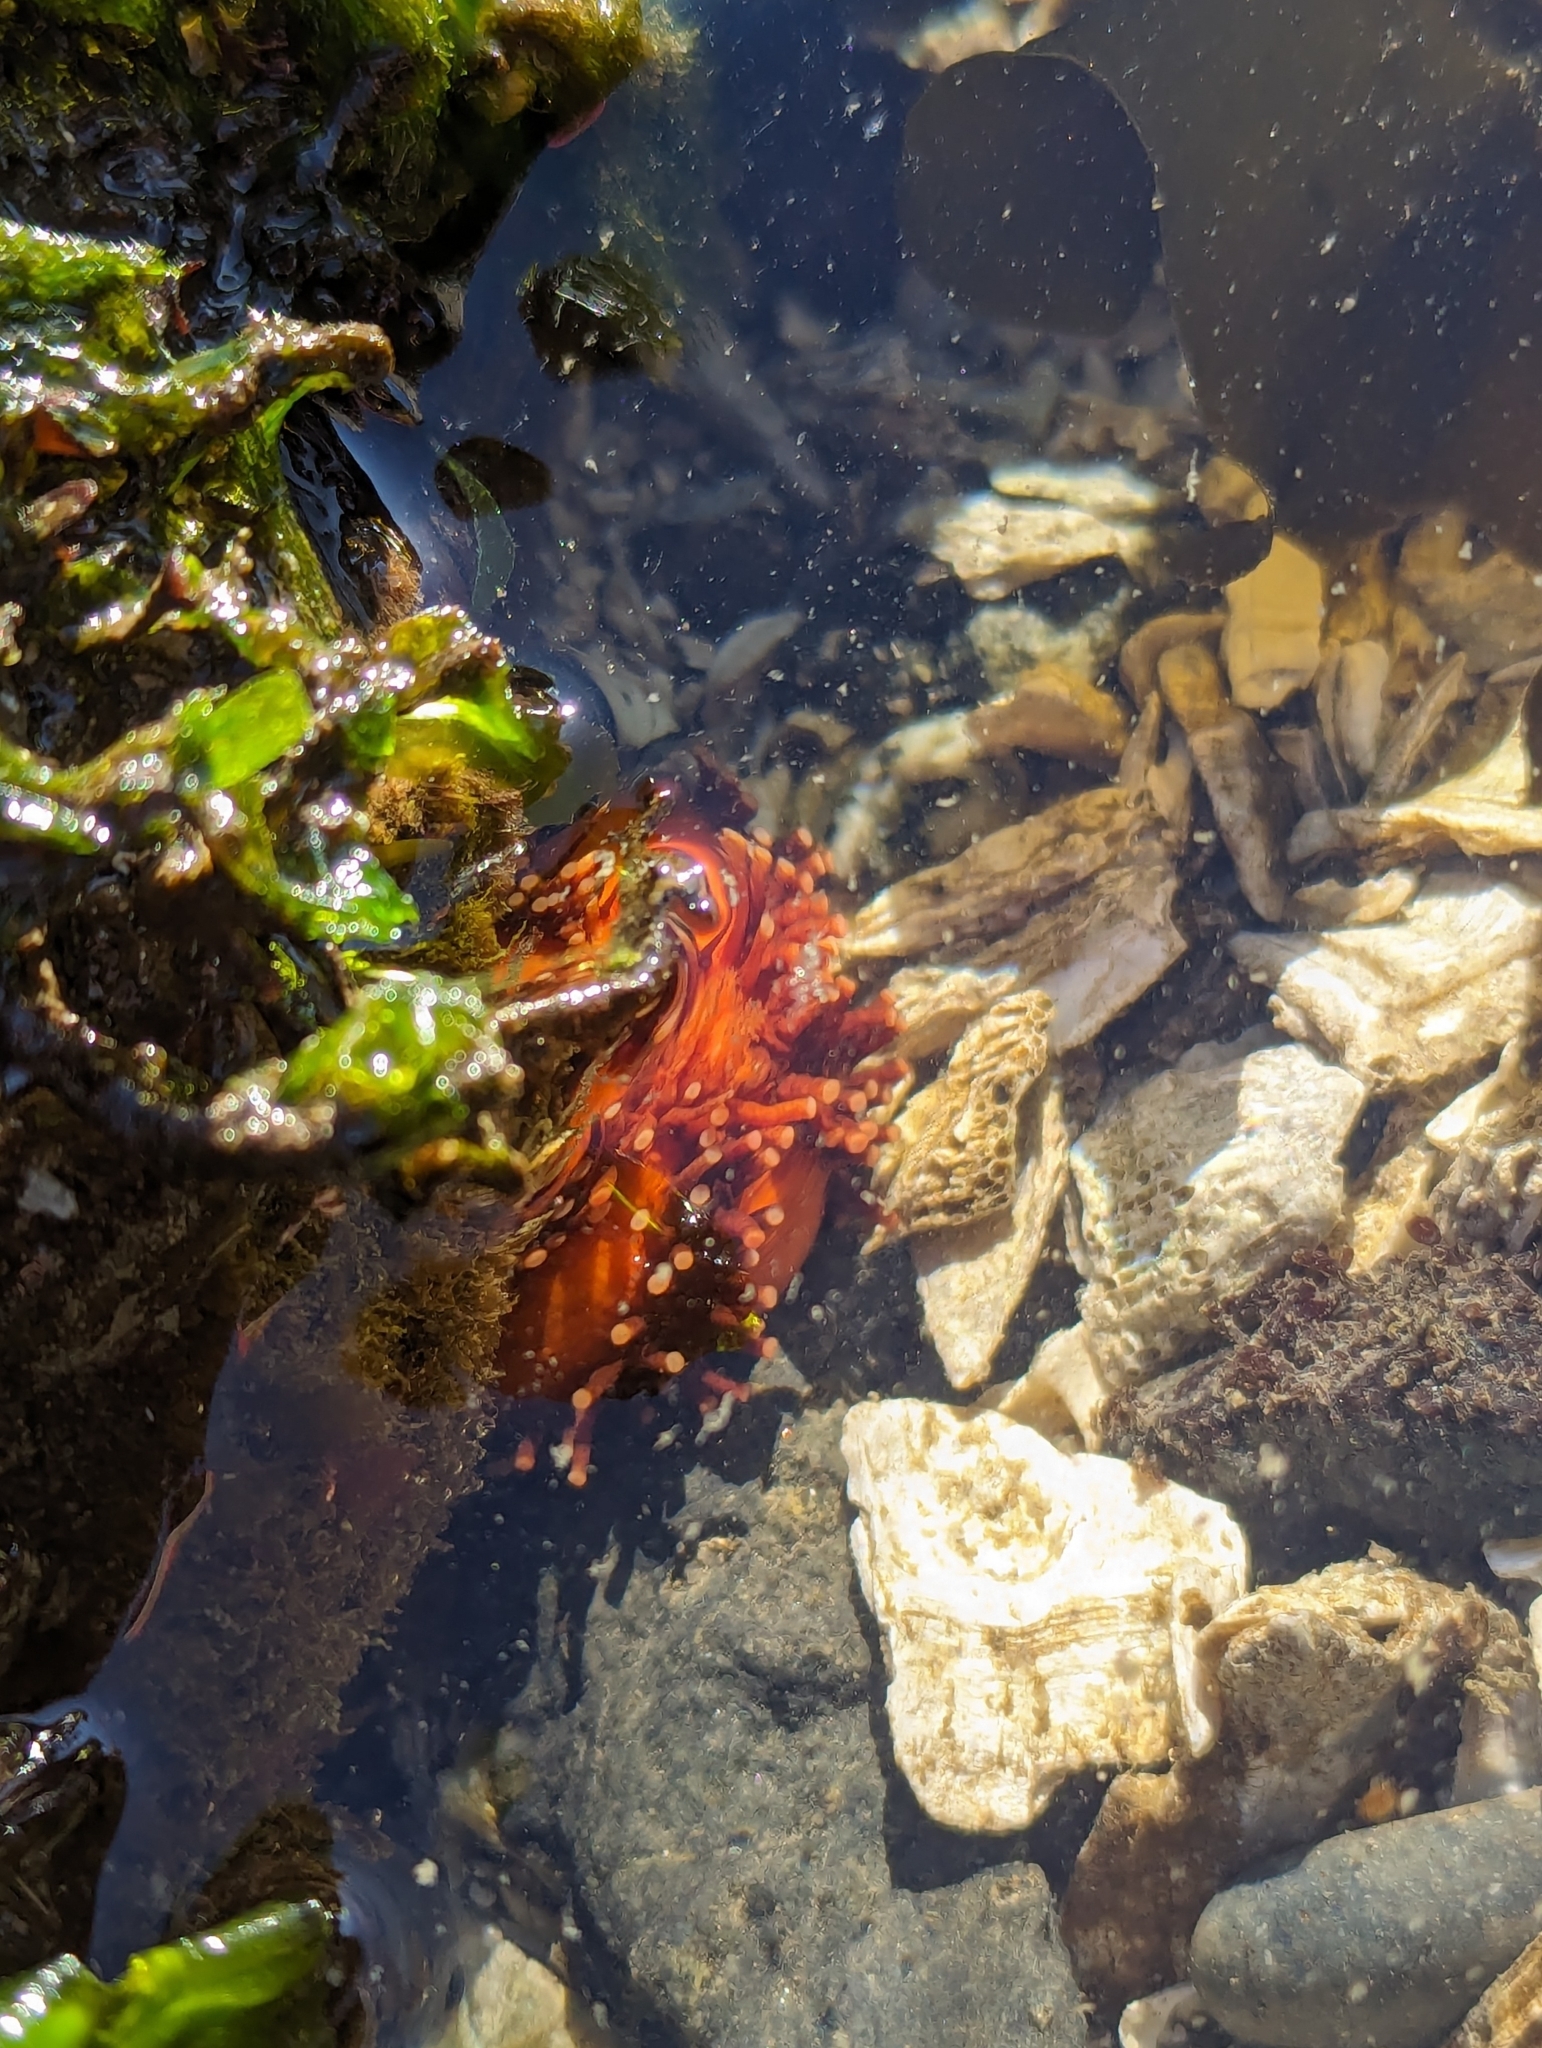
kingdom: Animalia
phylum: Echinodermata
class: Holothuroidea
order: Dendrochirotida
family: Cucumariidae
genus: Cucumaria
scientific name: Cucumaria miniata
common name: Orange sea cucumber
